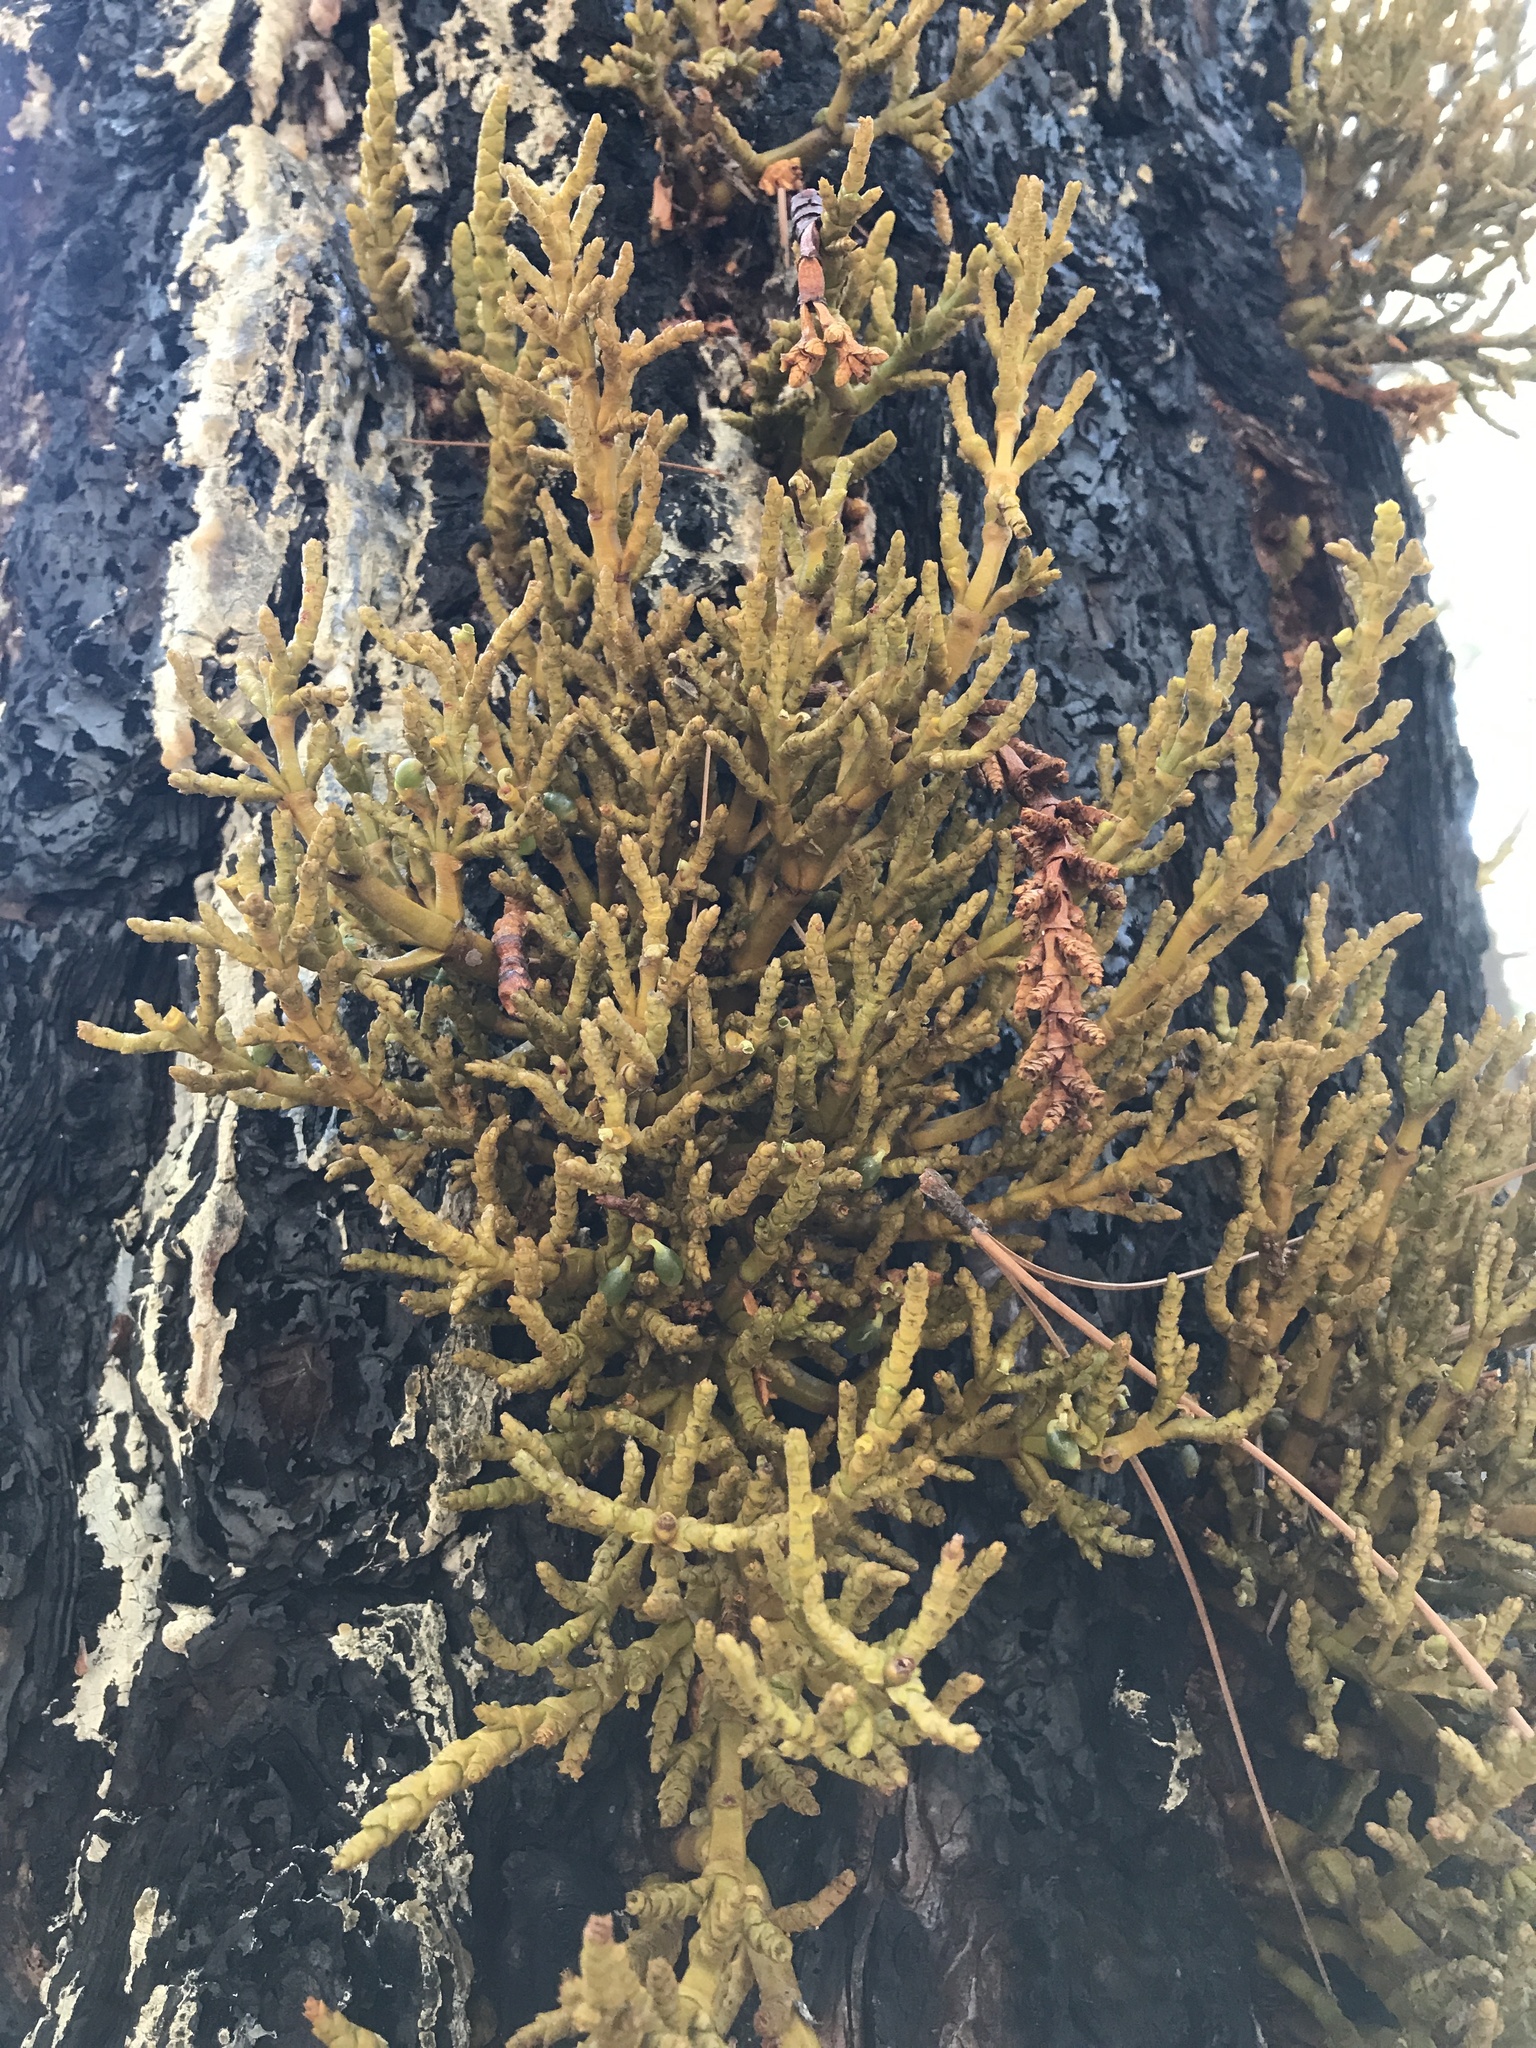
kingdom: Plantae
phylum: Tracheophyta
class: Magnoliopsida
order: Santalales
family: Viscaceae
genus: Phoradendron
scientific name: Phoradendron juniperinum
